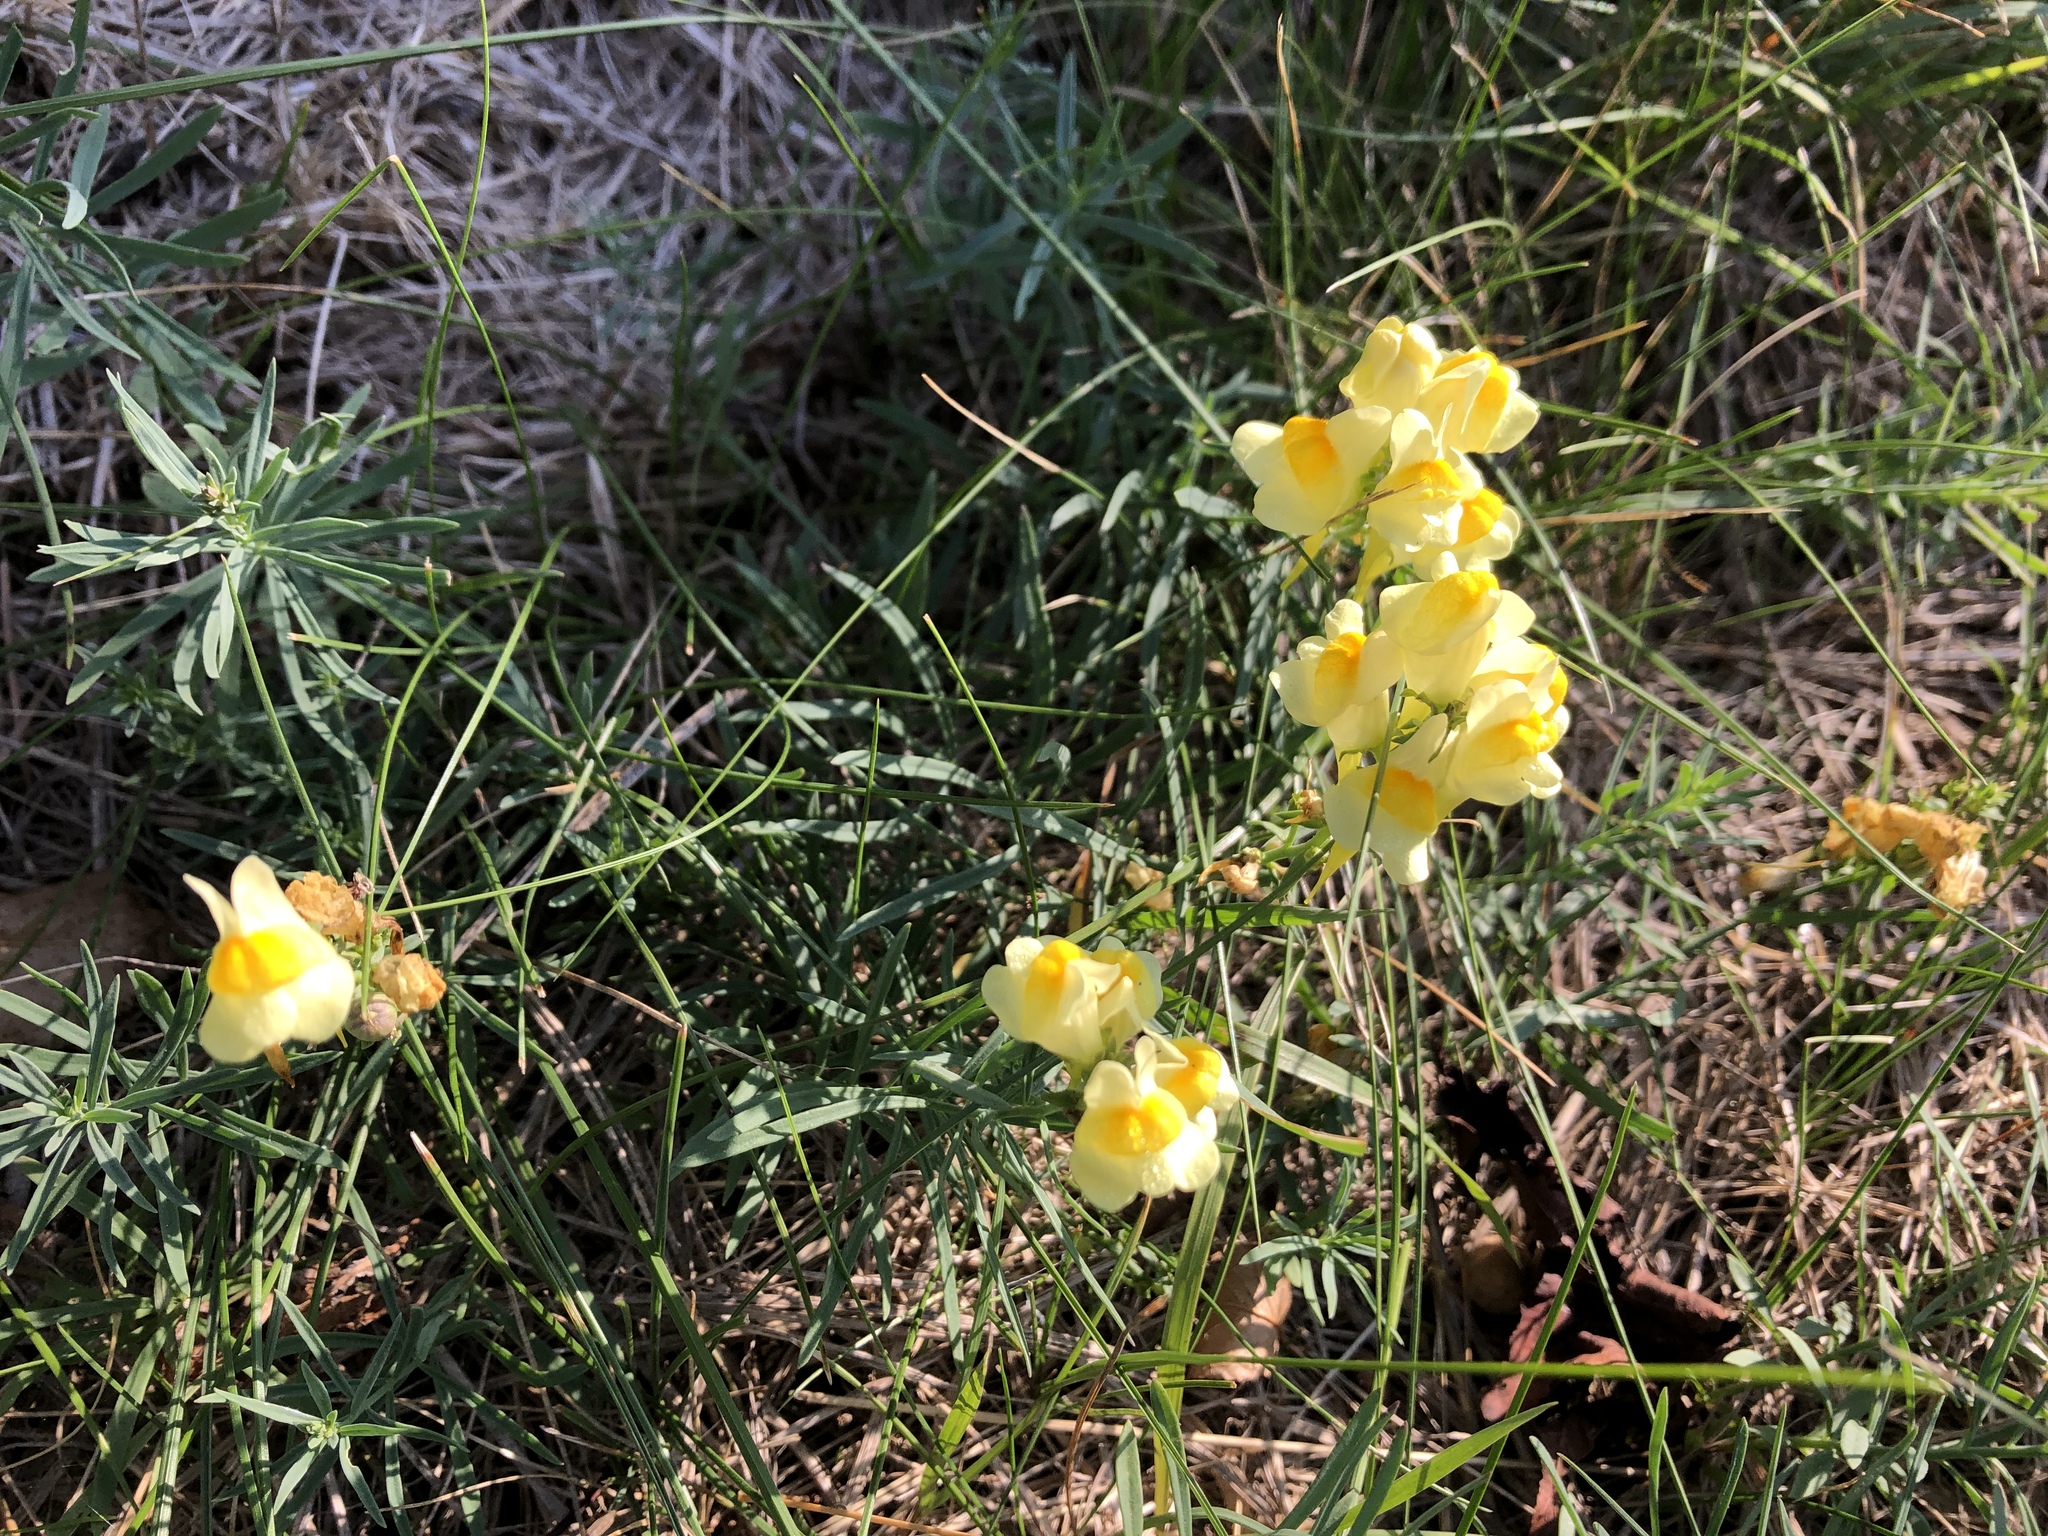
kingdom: Plantae
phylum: Tracheophyta
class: Magnoliopsida
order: Lamiales
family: Plantaginaceae
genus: Linaria
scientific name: Linaria vulgaris
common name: Butter and eggs
